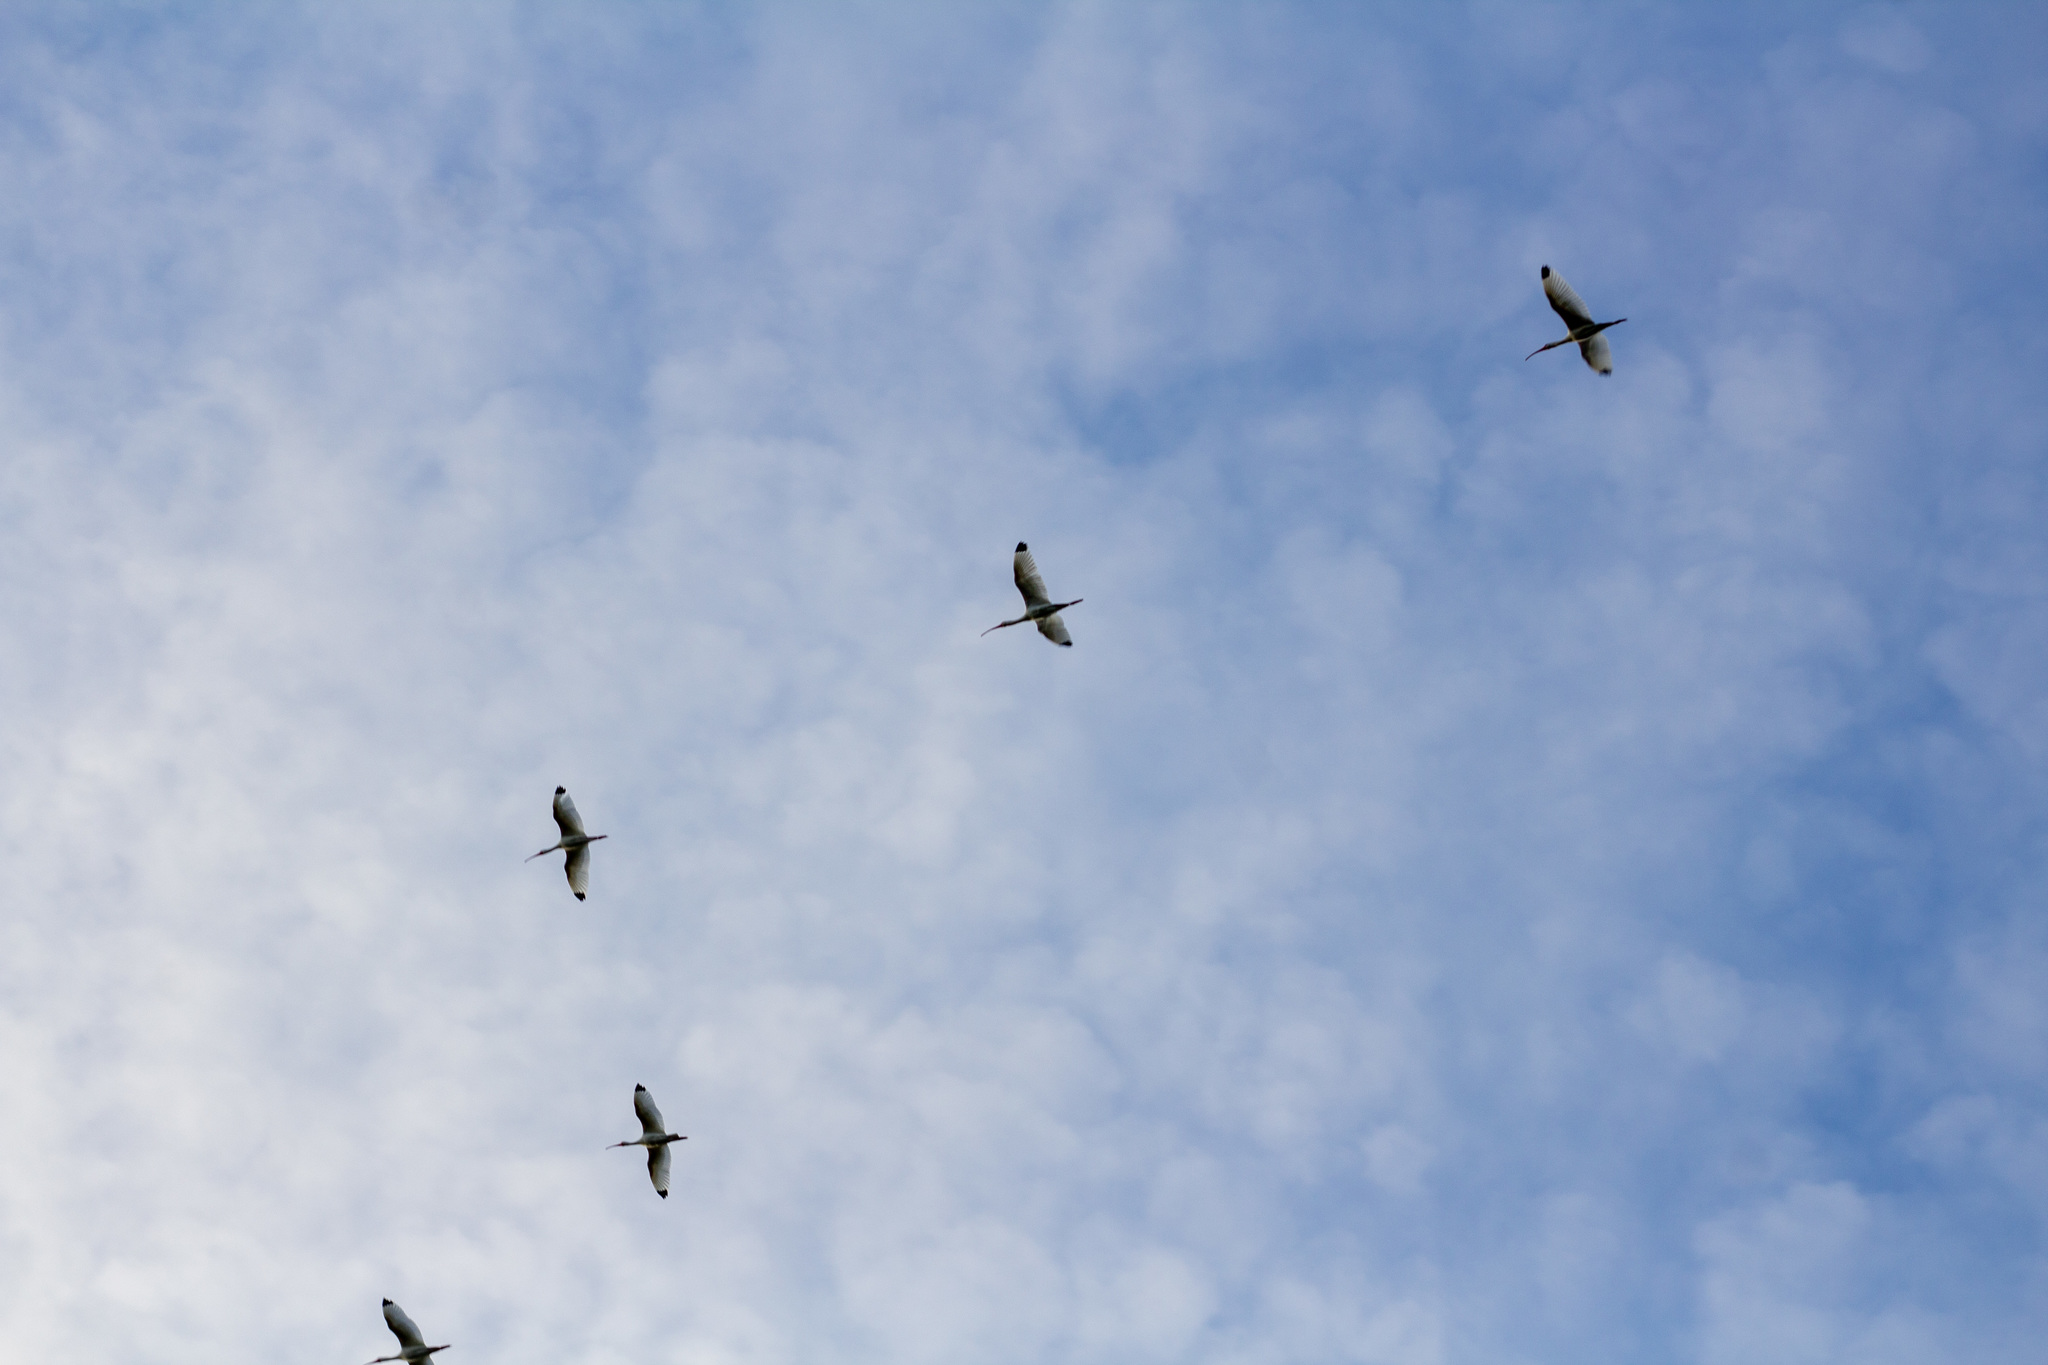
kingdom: Animalia
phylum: Chordata
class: Aves
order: Pelecaniformes
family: Threskiornithidae
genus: Eudocimus
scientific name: Eudocimus albus
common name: White ibis
